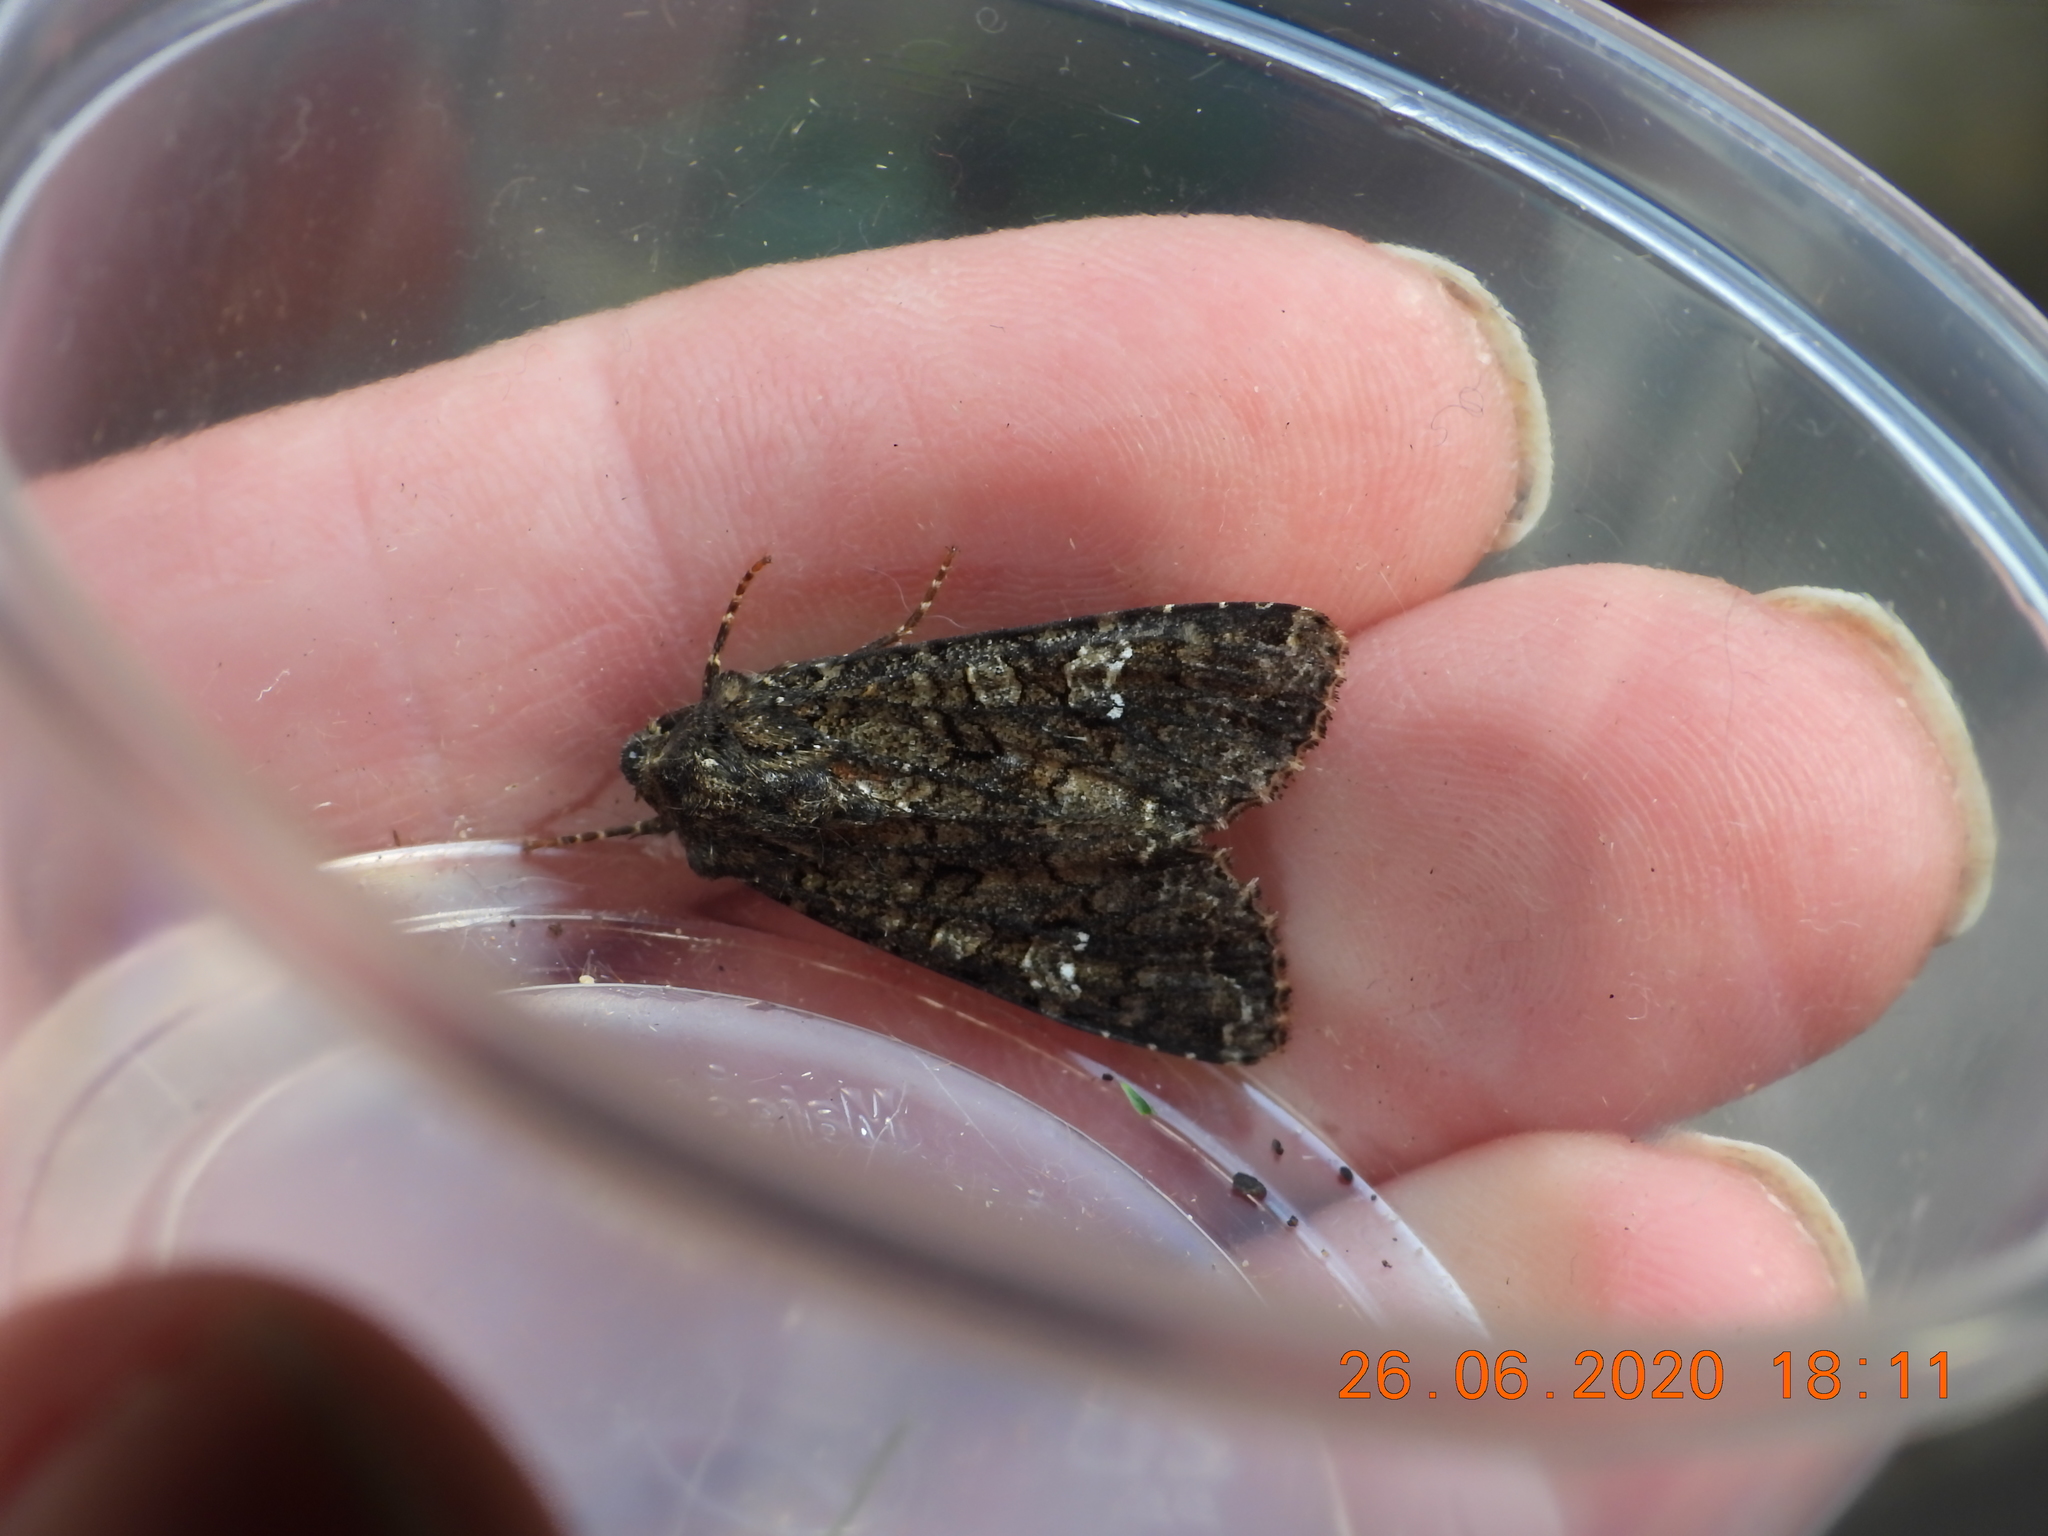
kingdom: Animalia
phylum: Arthropoda
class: Insecta
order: Lepidoptera
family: Noctuidae
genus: Mamestra
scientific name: Mamestra brassicae
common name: Cabbage moth
